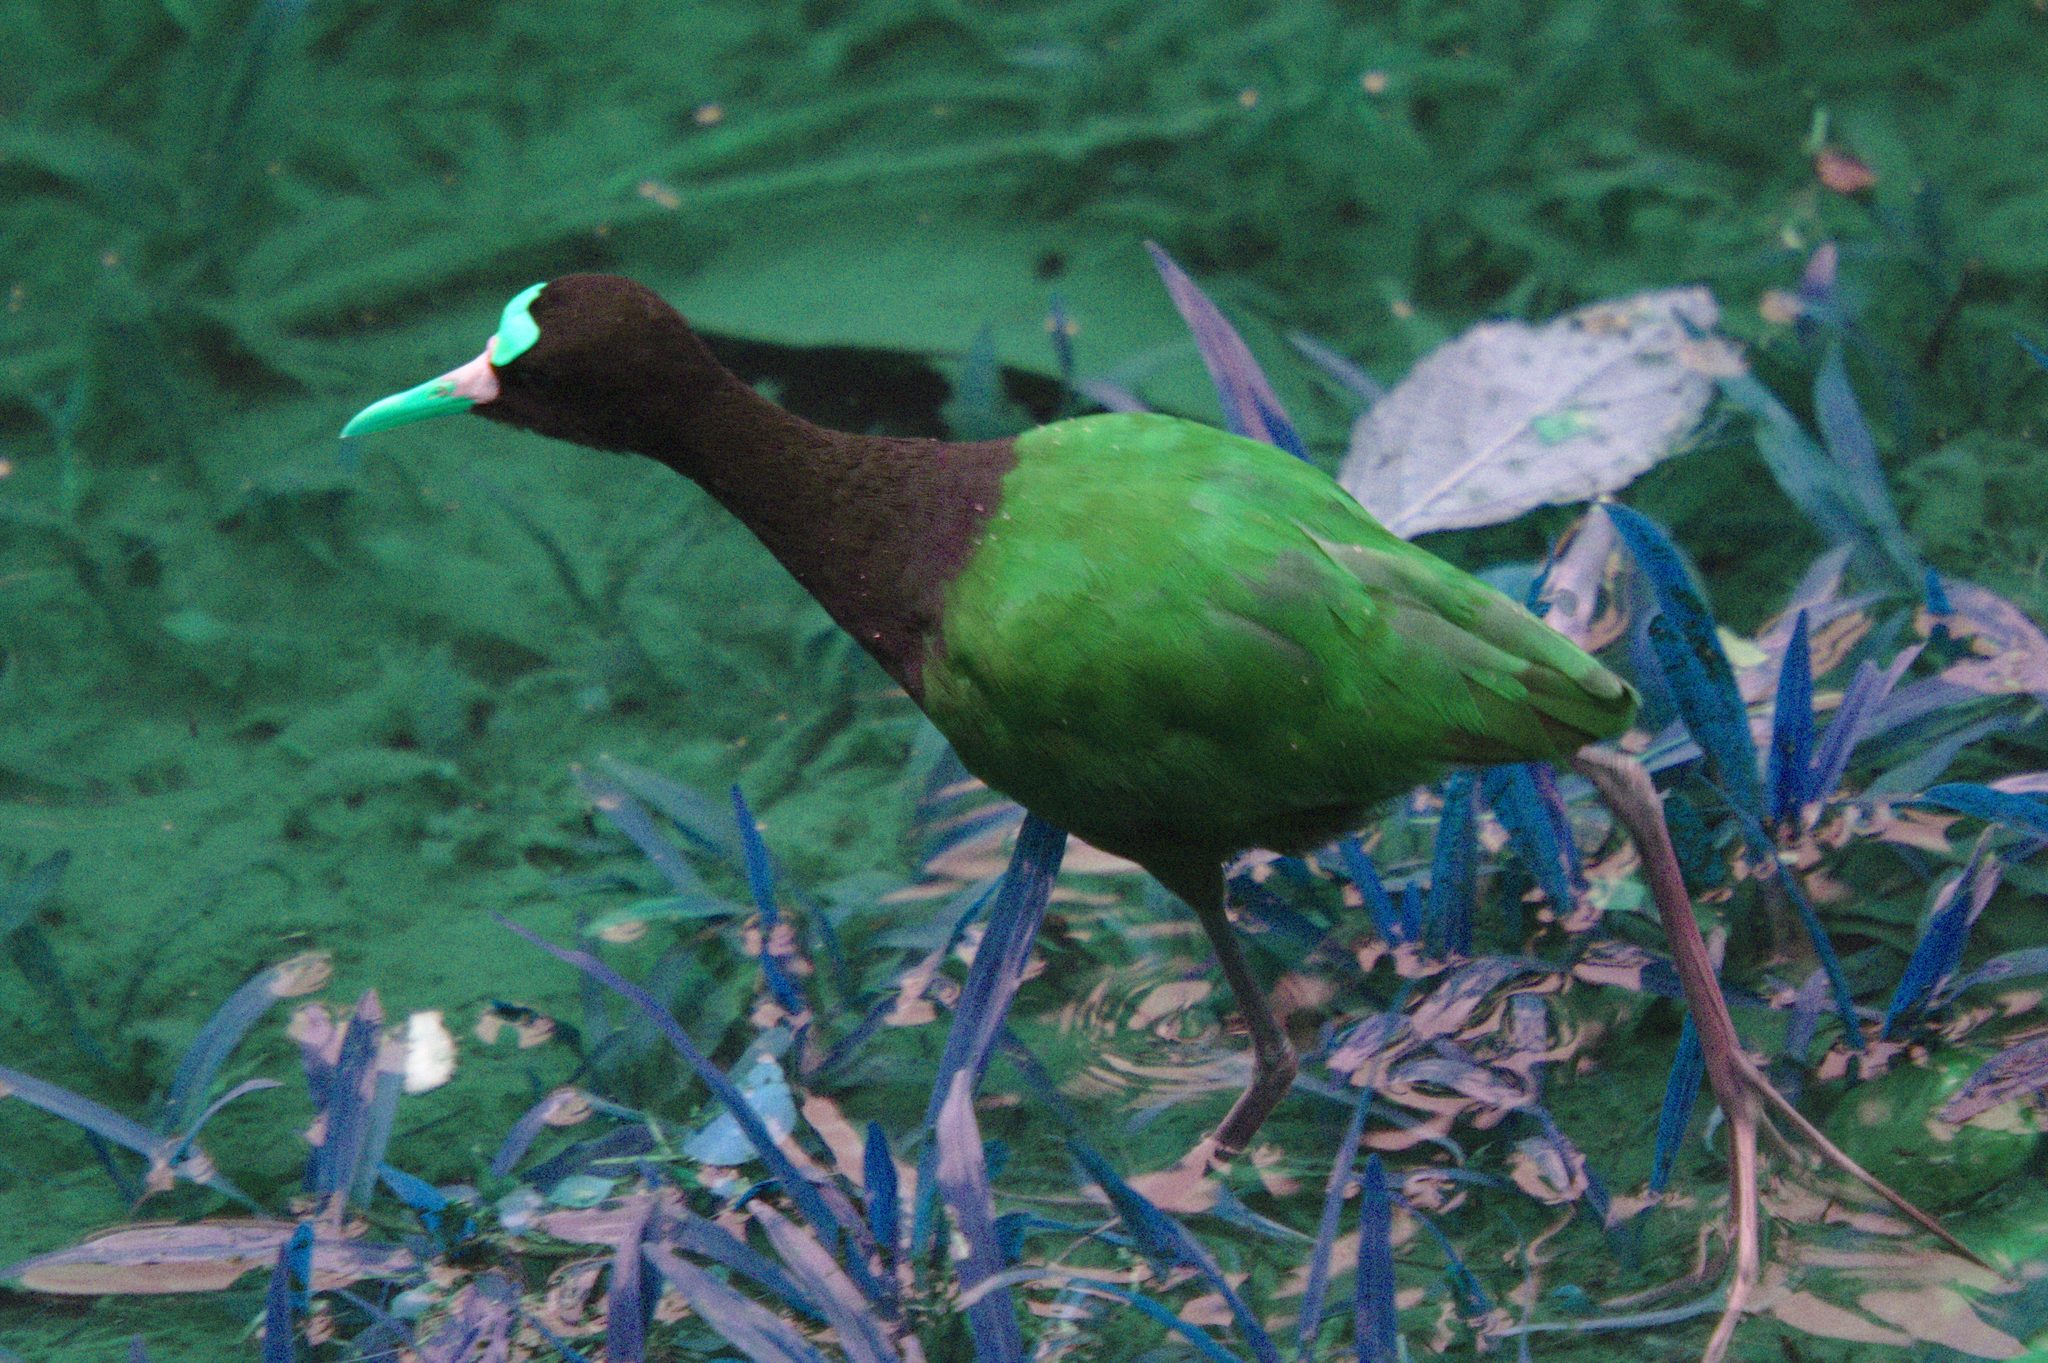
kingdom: Animalia
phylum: Chordata
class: Aves
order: Charadriiformes
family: Jacanidae
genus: Jacana
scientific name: Jacana spinosa
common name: Northern jacana
